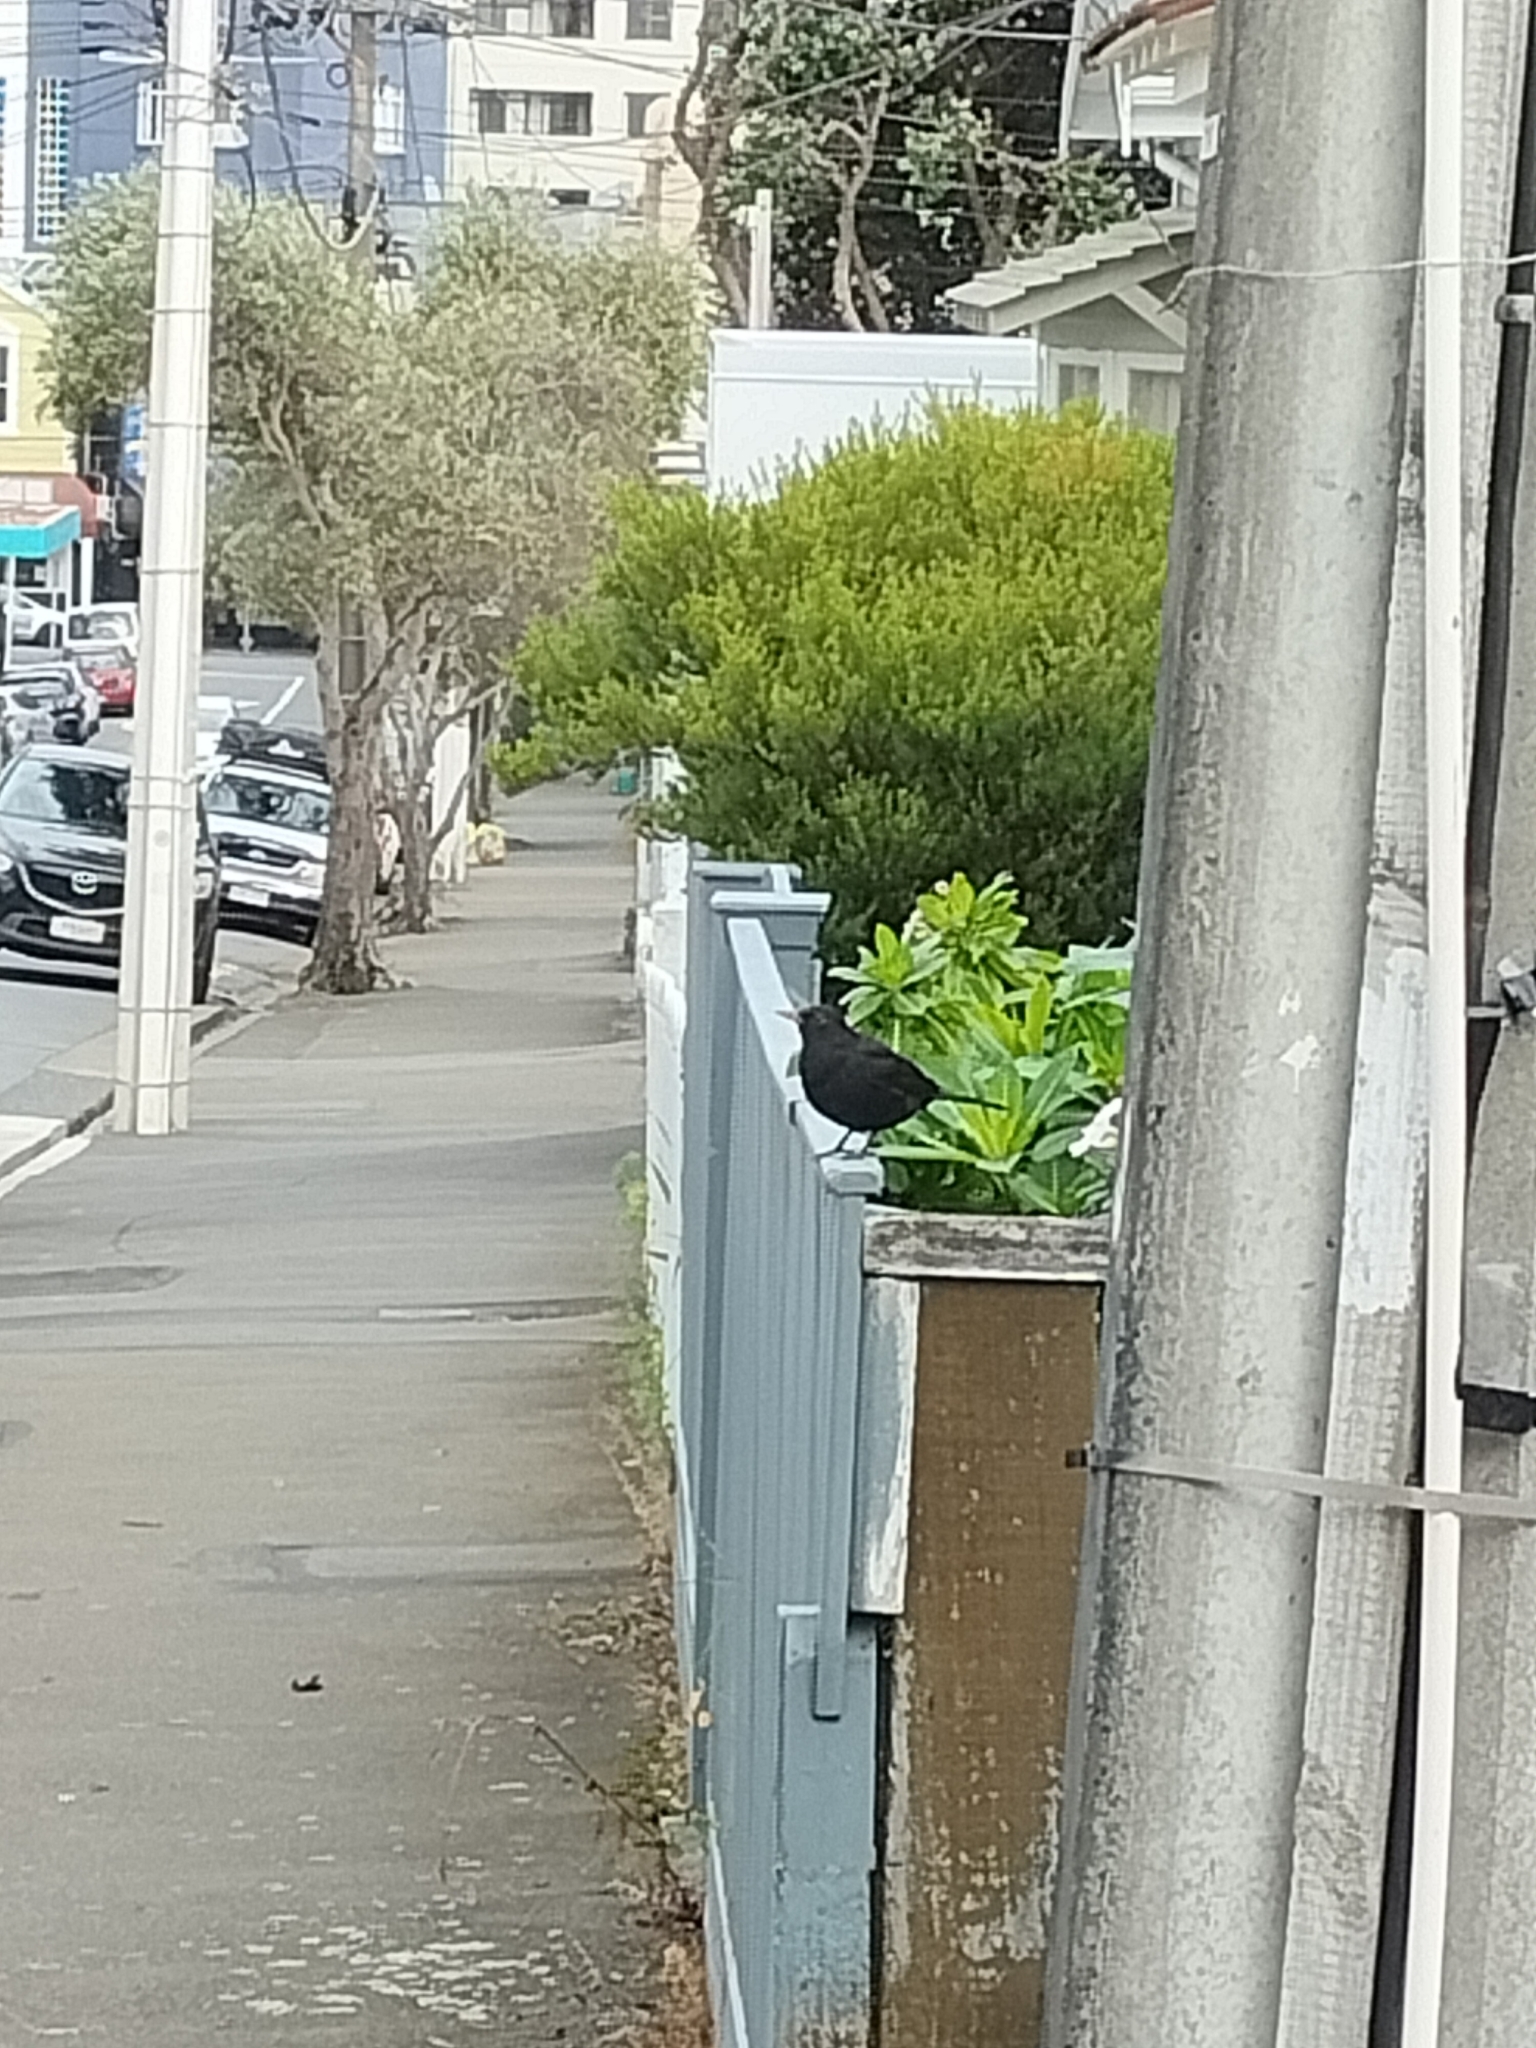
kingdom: Animalia
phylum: Chordata
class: Aves
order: Passeriformes
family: Turdidae
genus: Turdus
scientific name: Turdus merula
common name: Common blackbird
